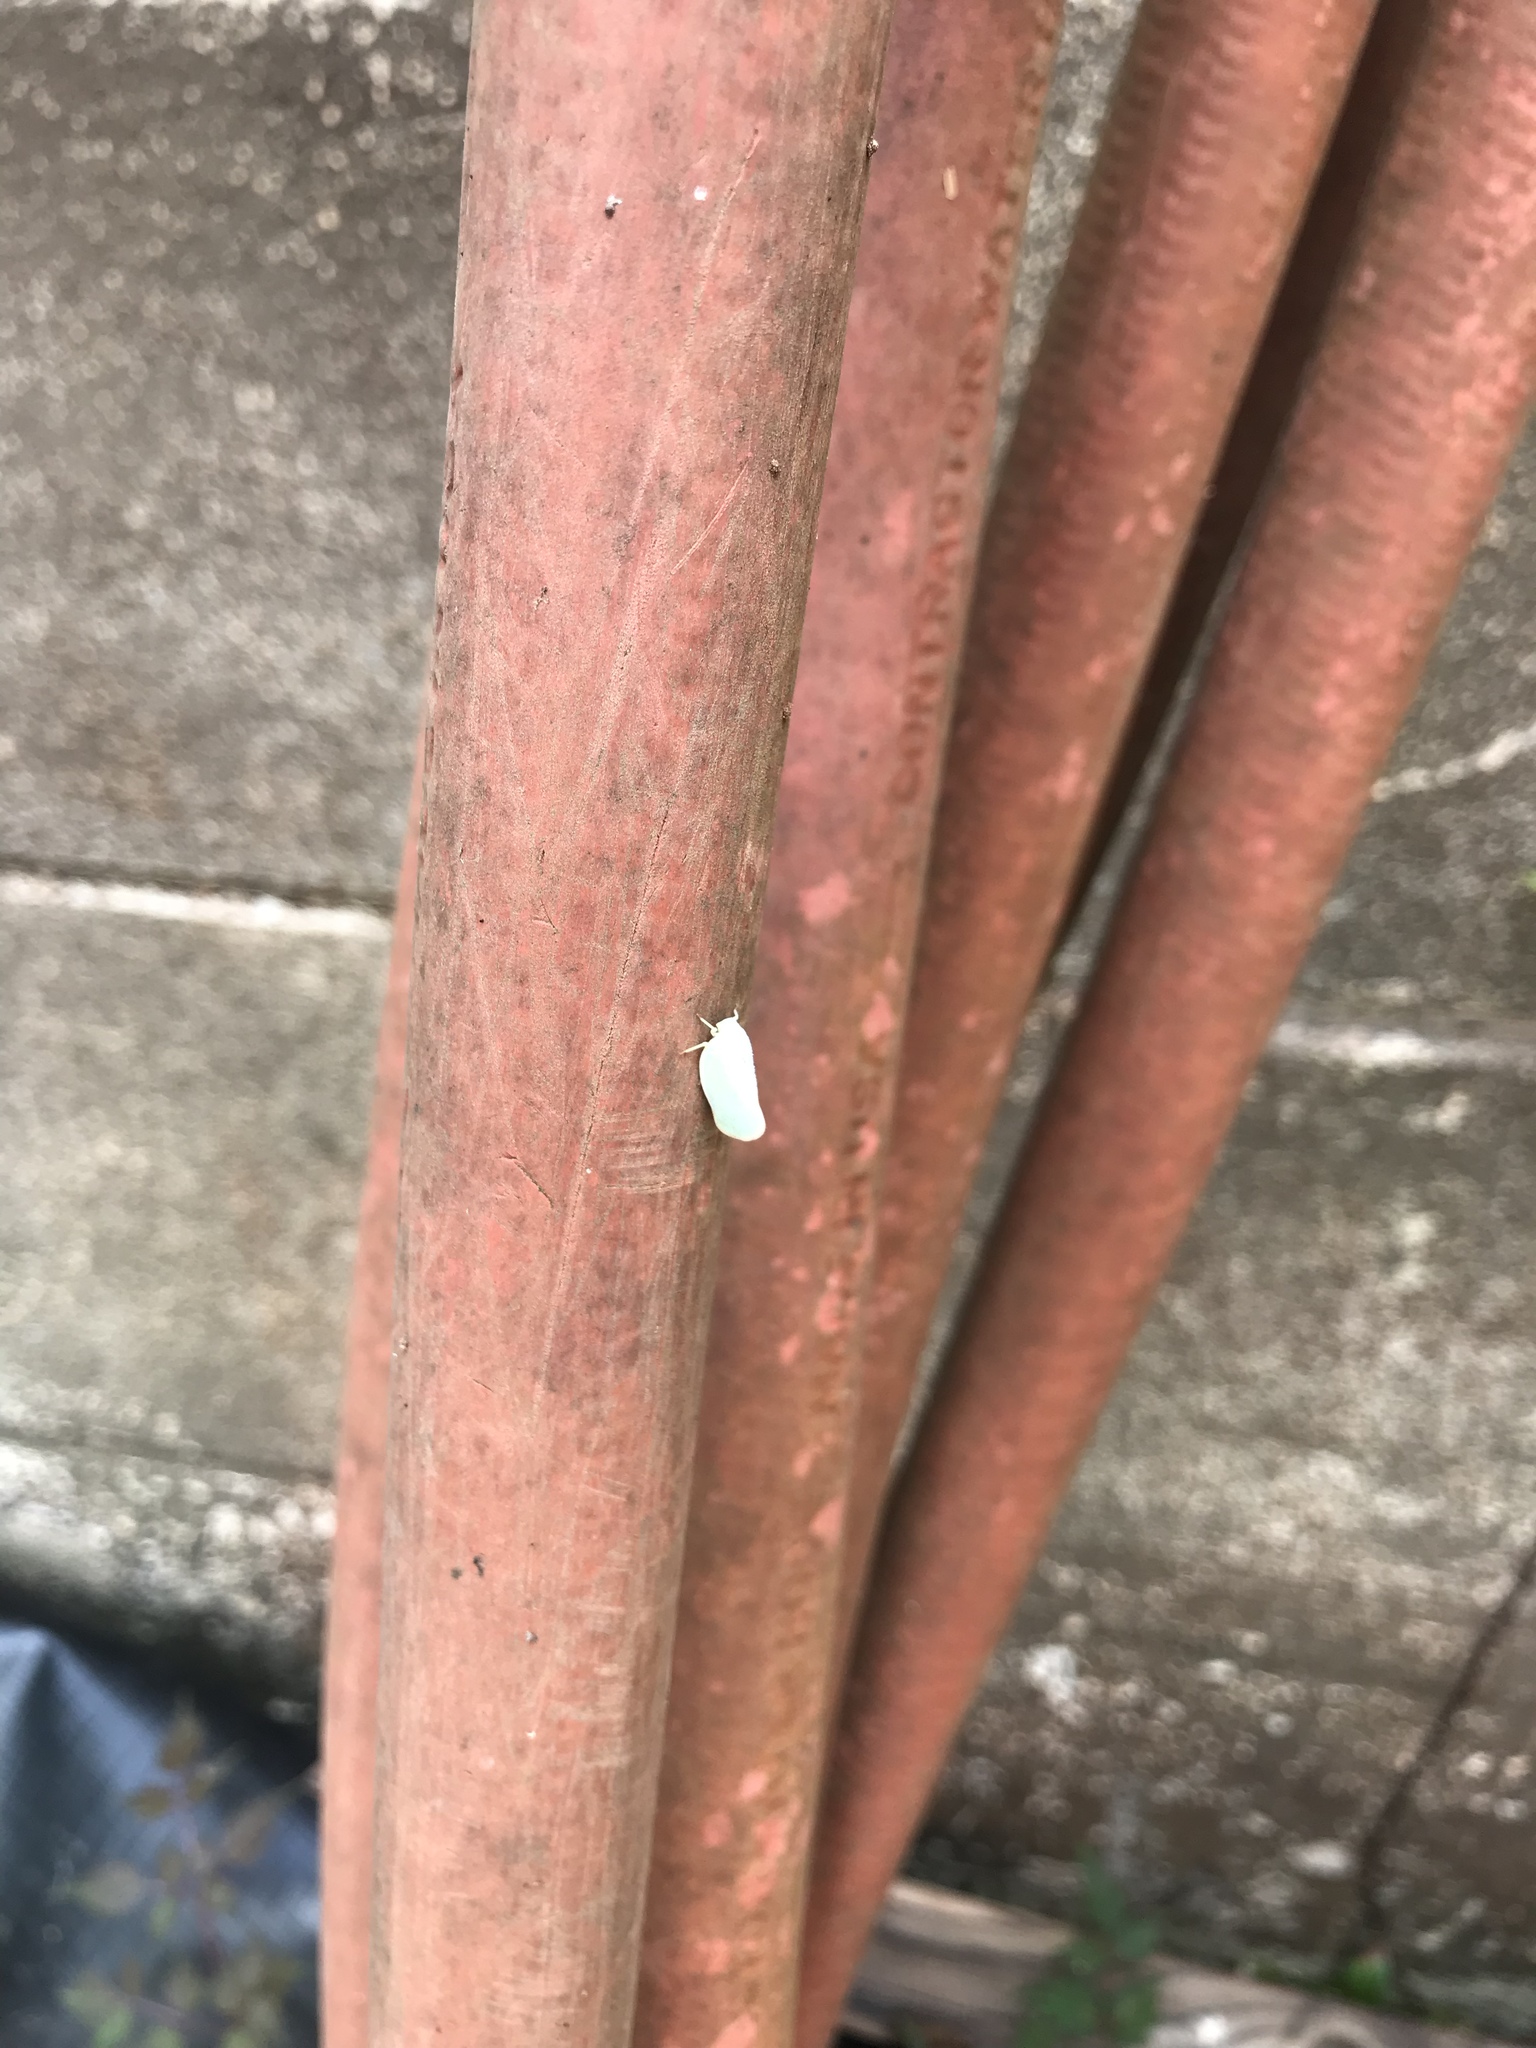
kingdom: Animalia
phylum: Arthropoda
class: Insecta
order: Hemiptera
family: Flatidae
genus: Ormenoides
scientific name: Ormenoides venusta
